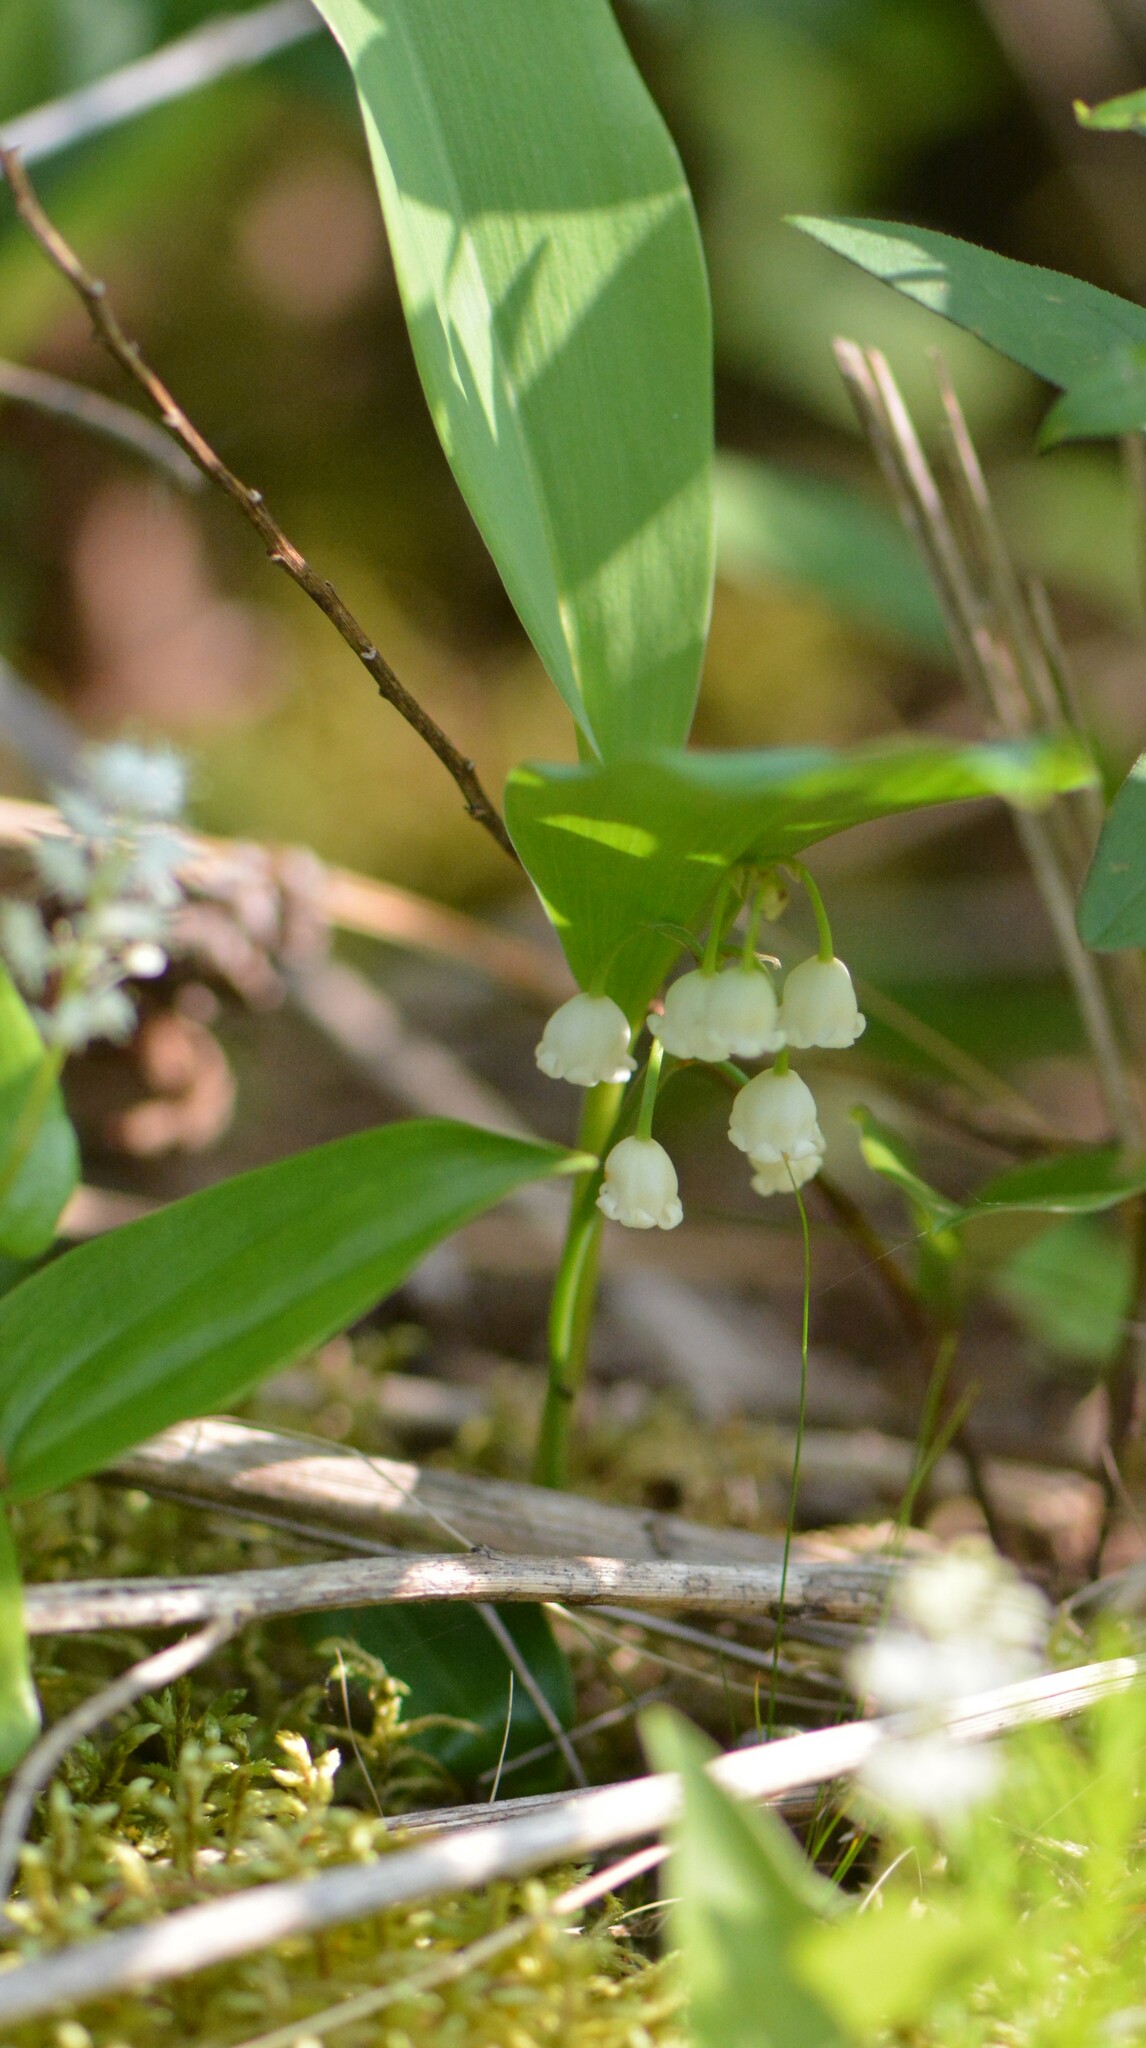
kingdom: Plantae
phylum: Tracheophyta
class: Liliopsida
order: Asparagales
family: Asparagaceae
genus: Convallaria
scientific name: Convallaria majalis
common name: Lily-of-the-valley
